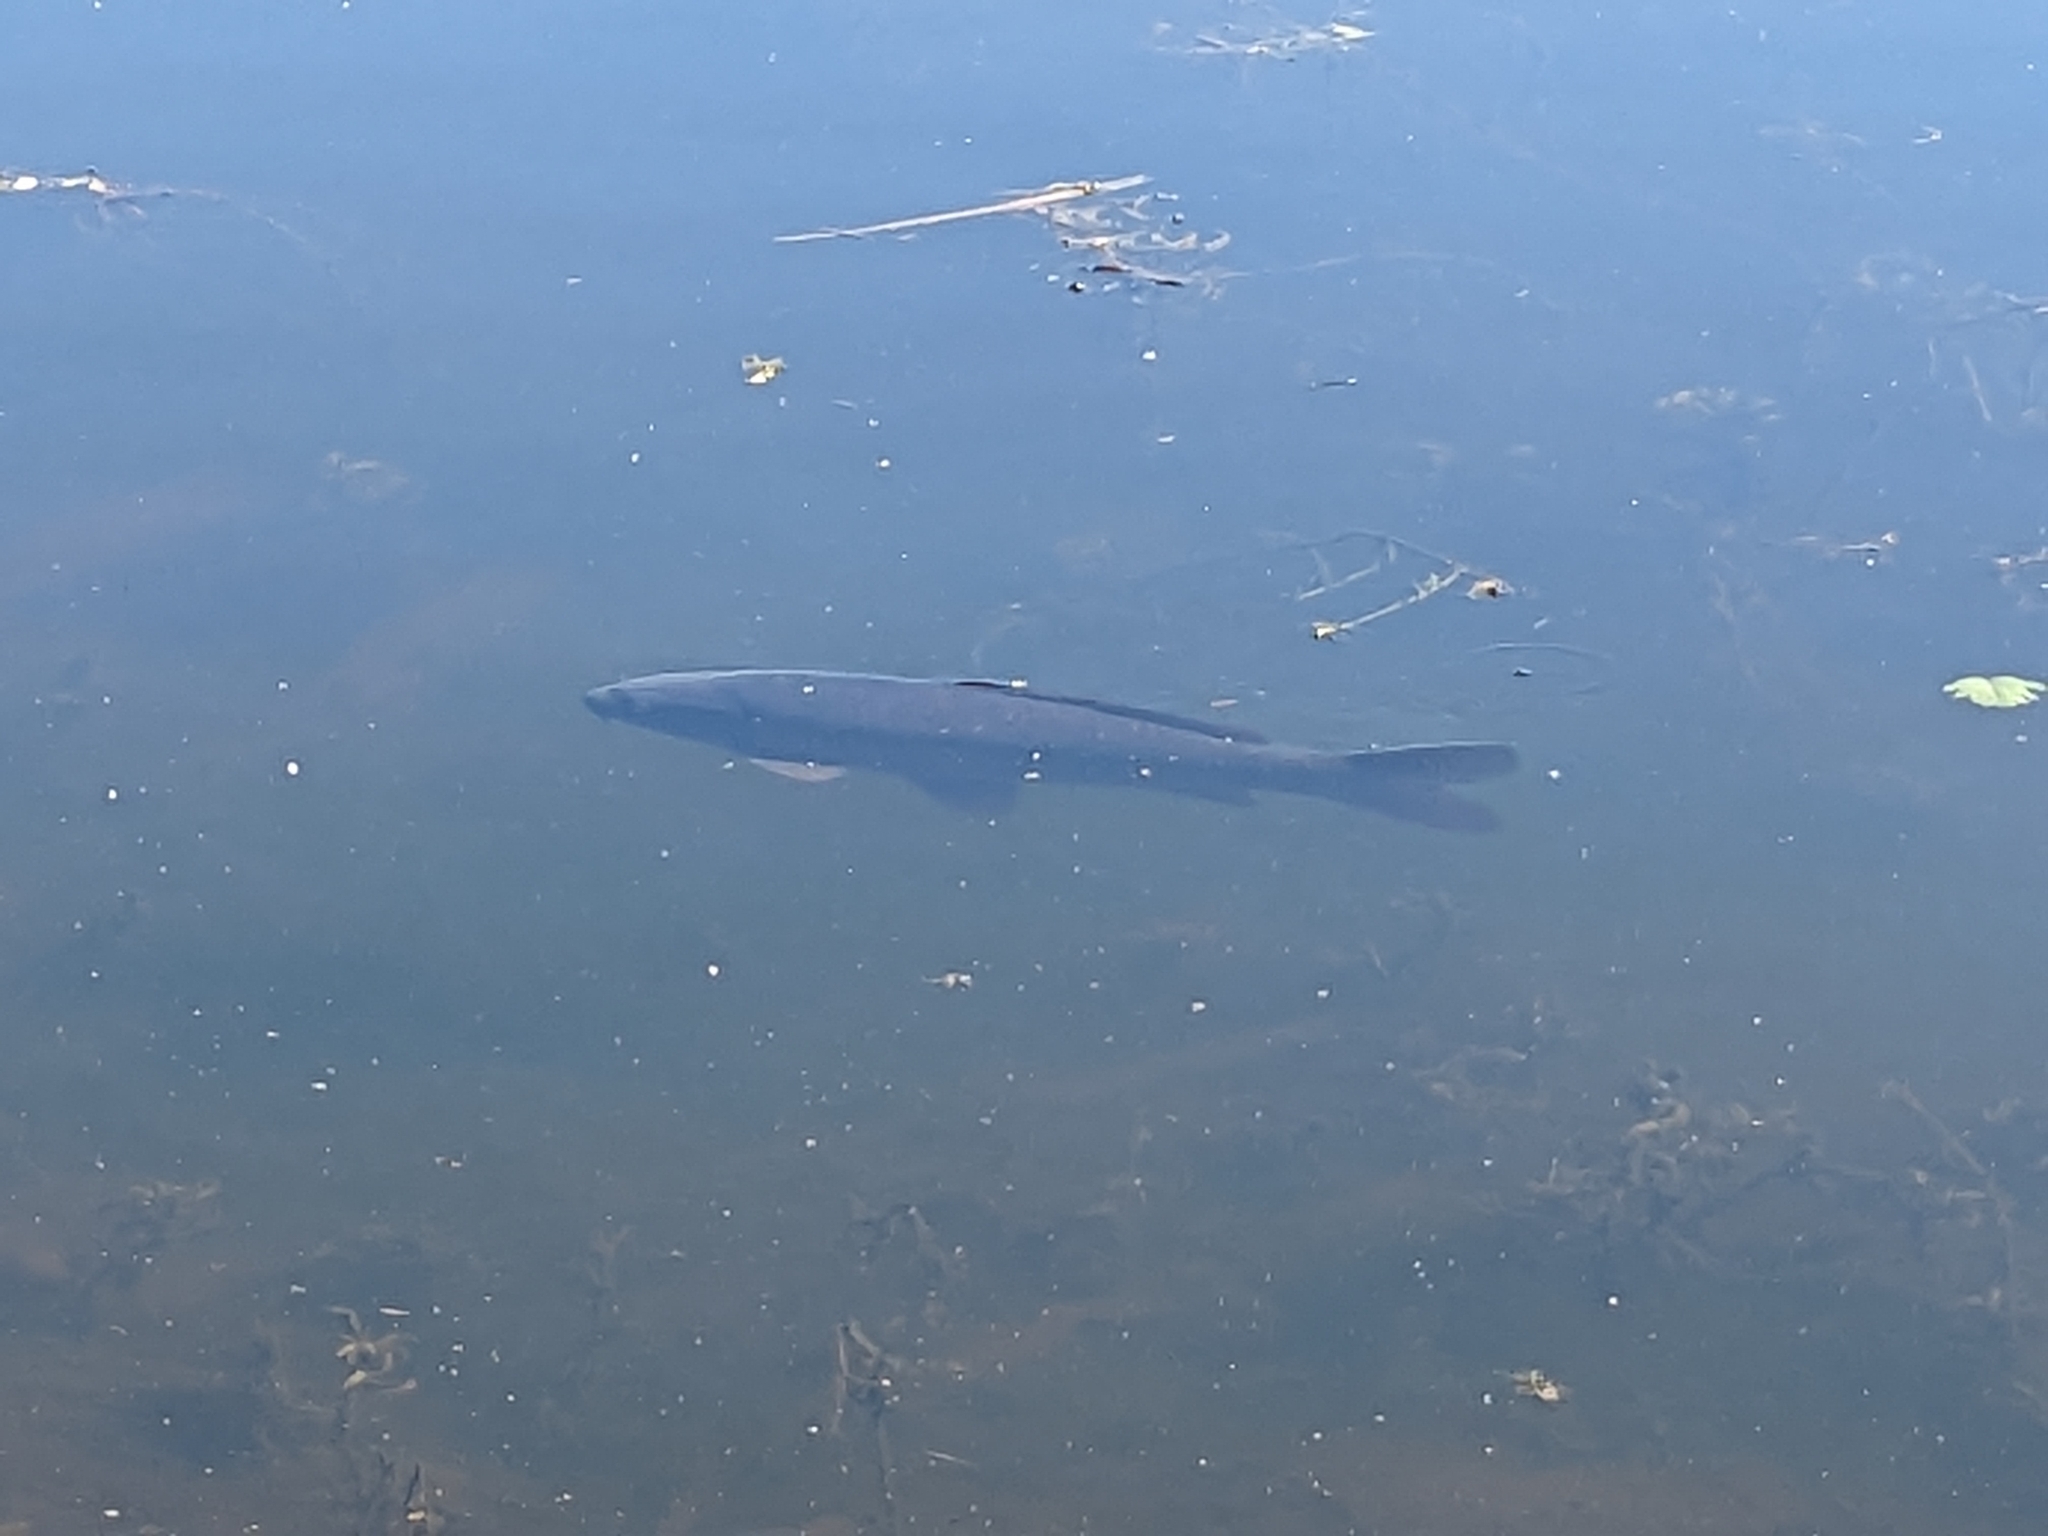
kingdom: Animalia
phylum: Chordata
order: Cypriniformes
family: Cyprinidae
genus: Cyprinus
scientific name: Cyprinus carpio
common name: Common carp
